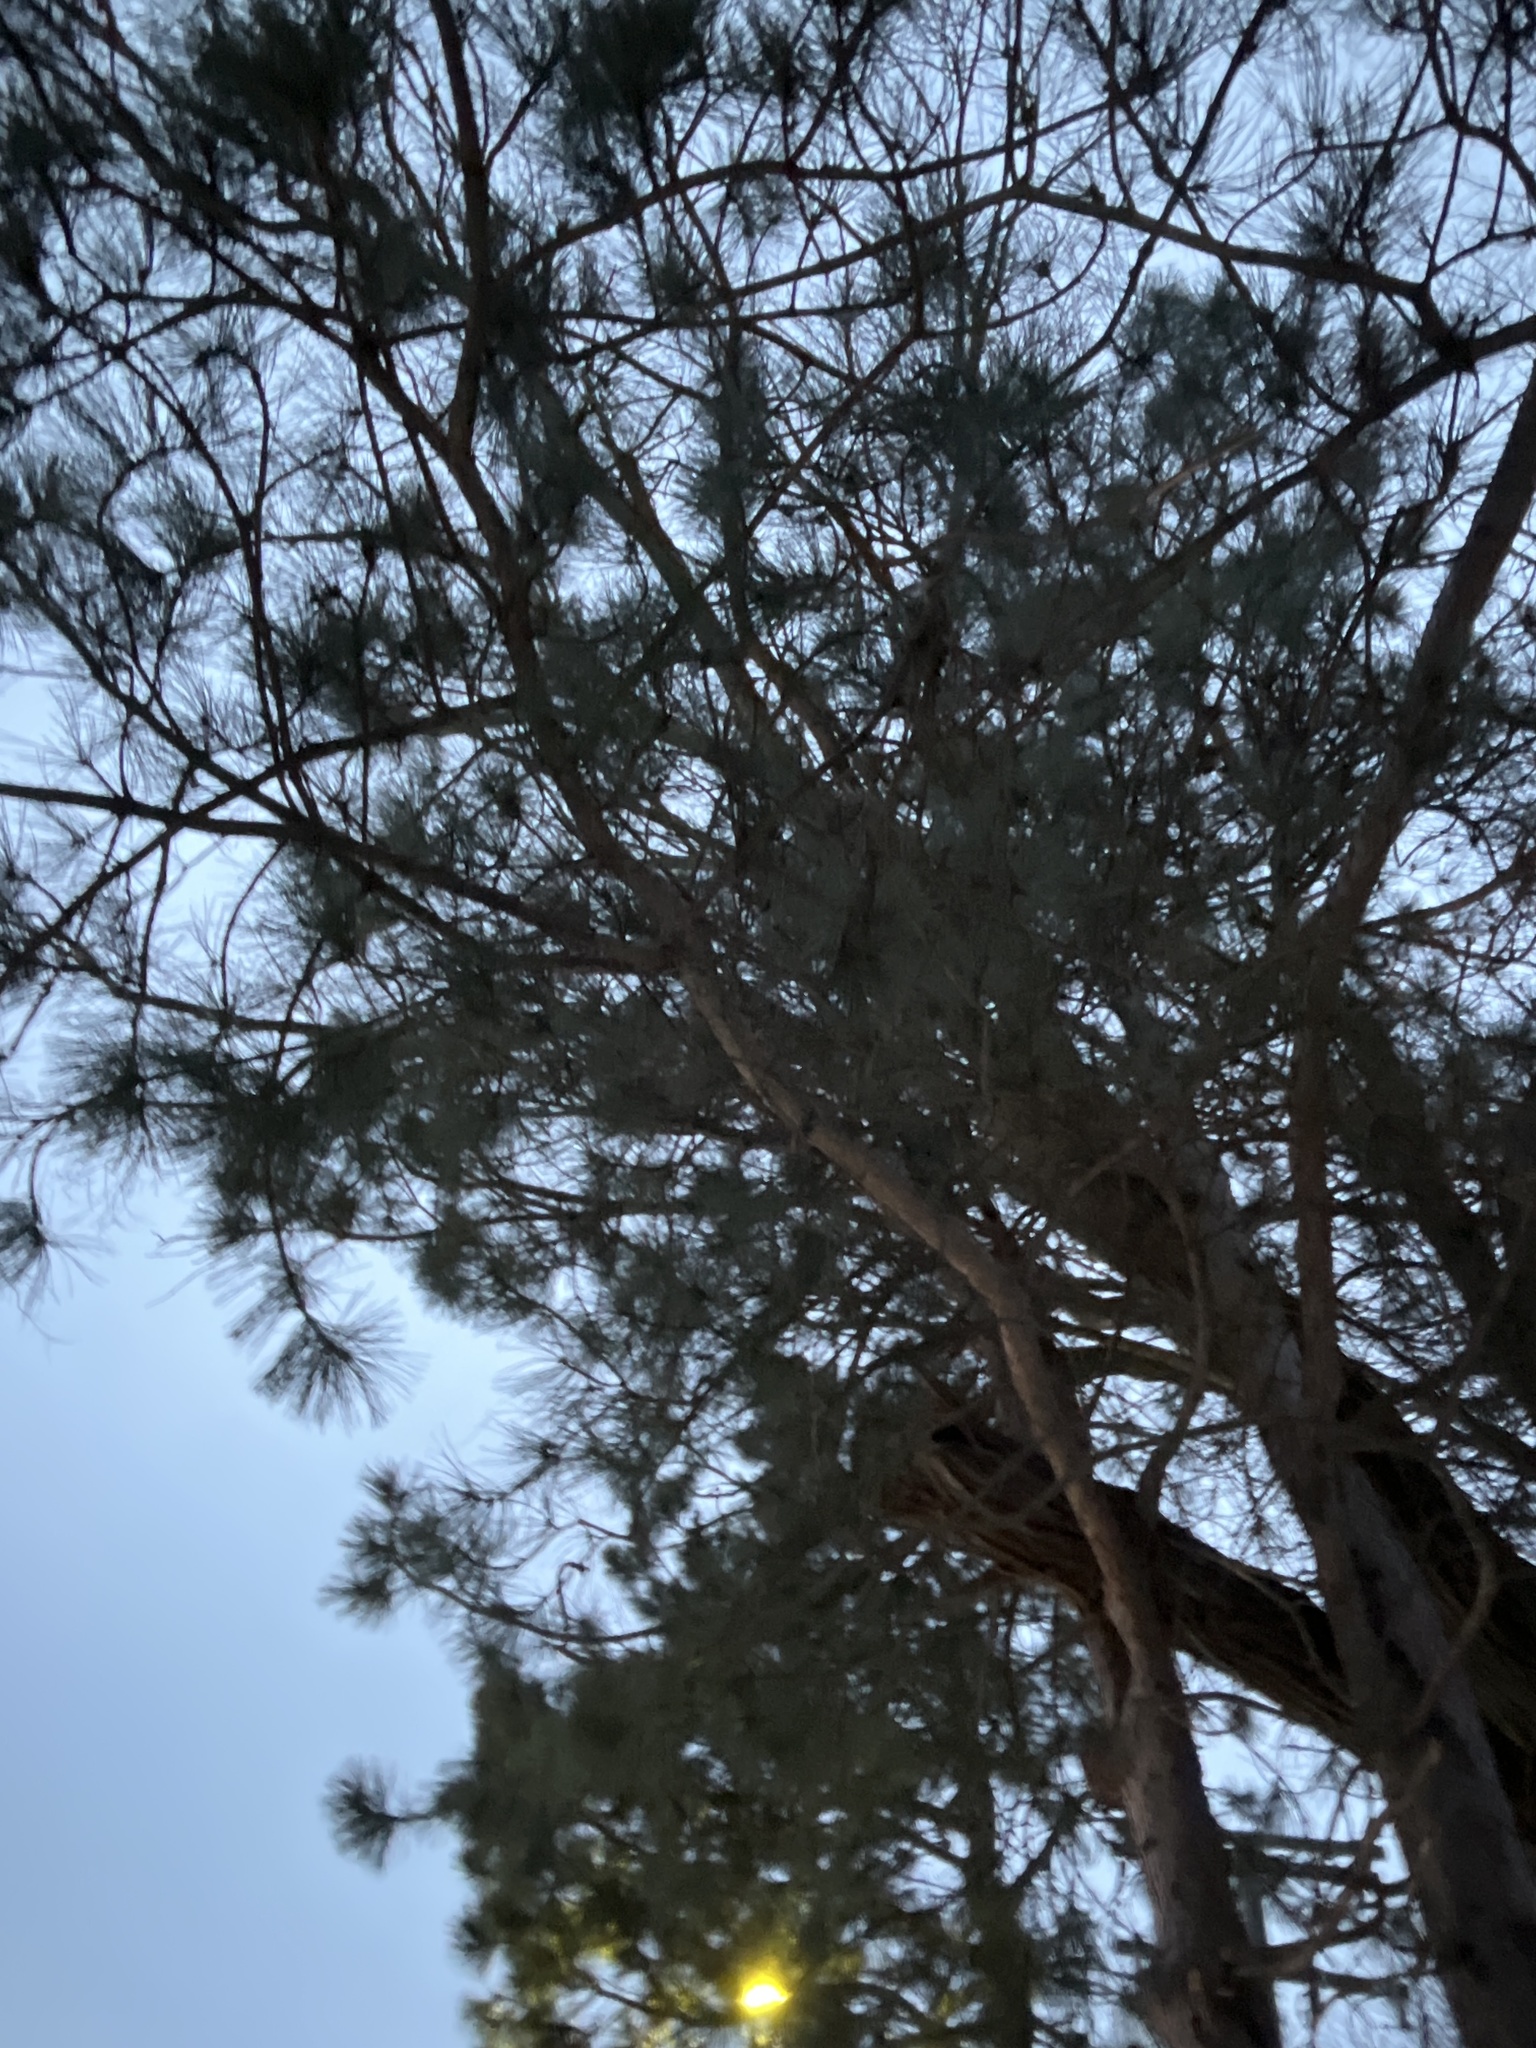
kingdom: Plantae
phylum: Tracheophyta
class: Pinopsida
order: Pinales
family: Pinaceae
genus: Pinus
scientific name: Pinus resinosa
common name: Norway pine
